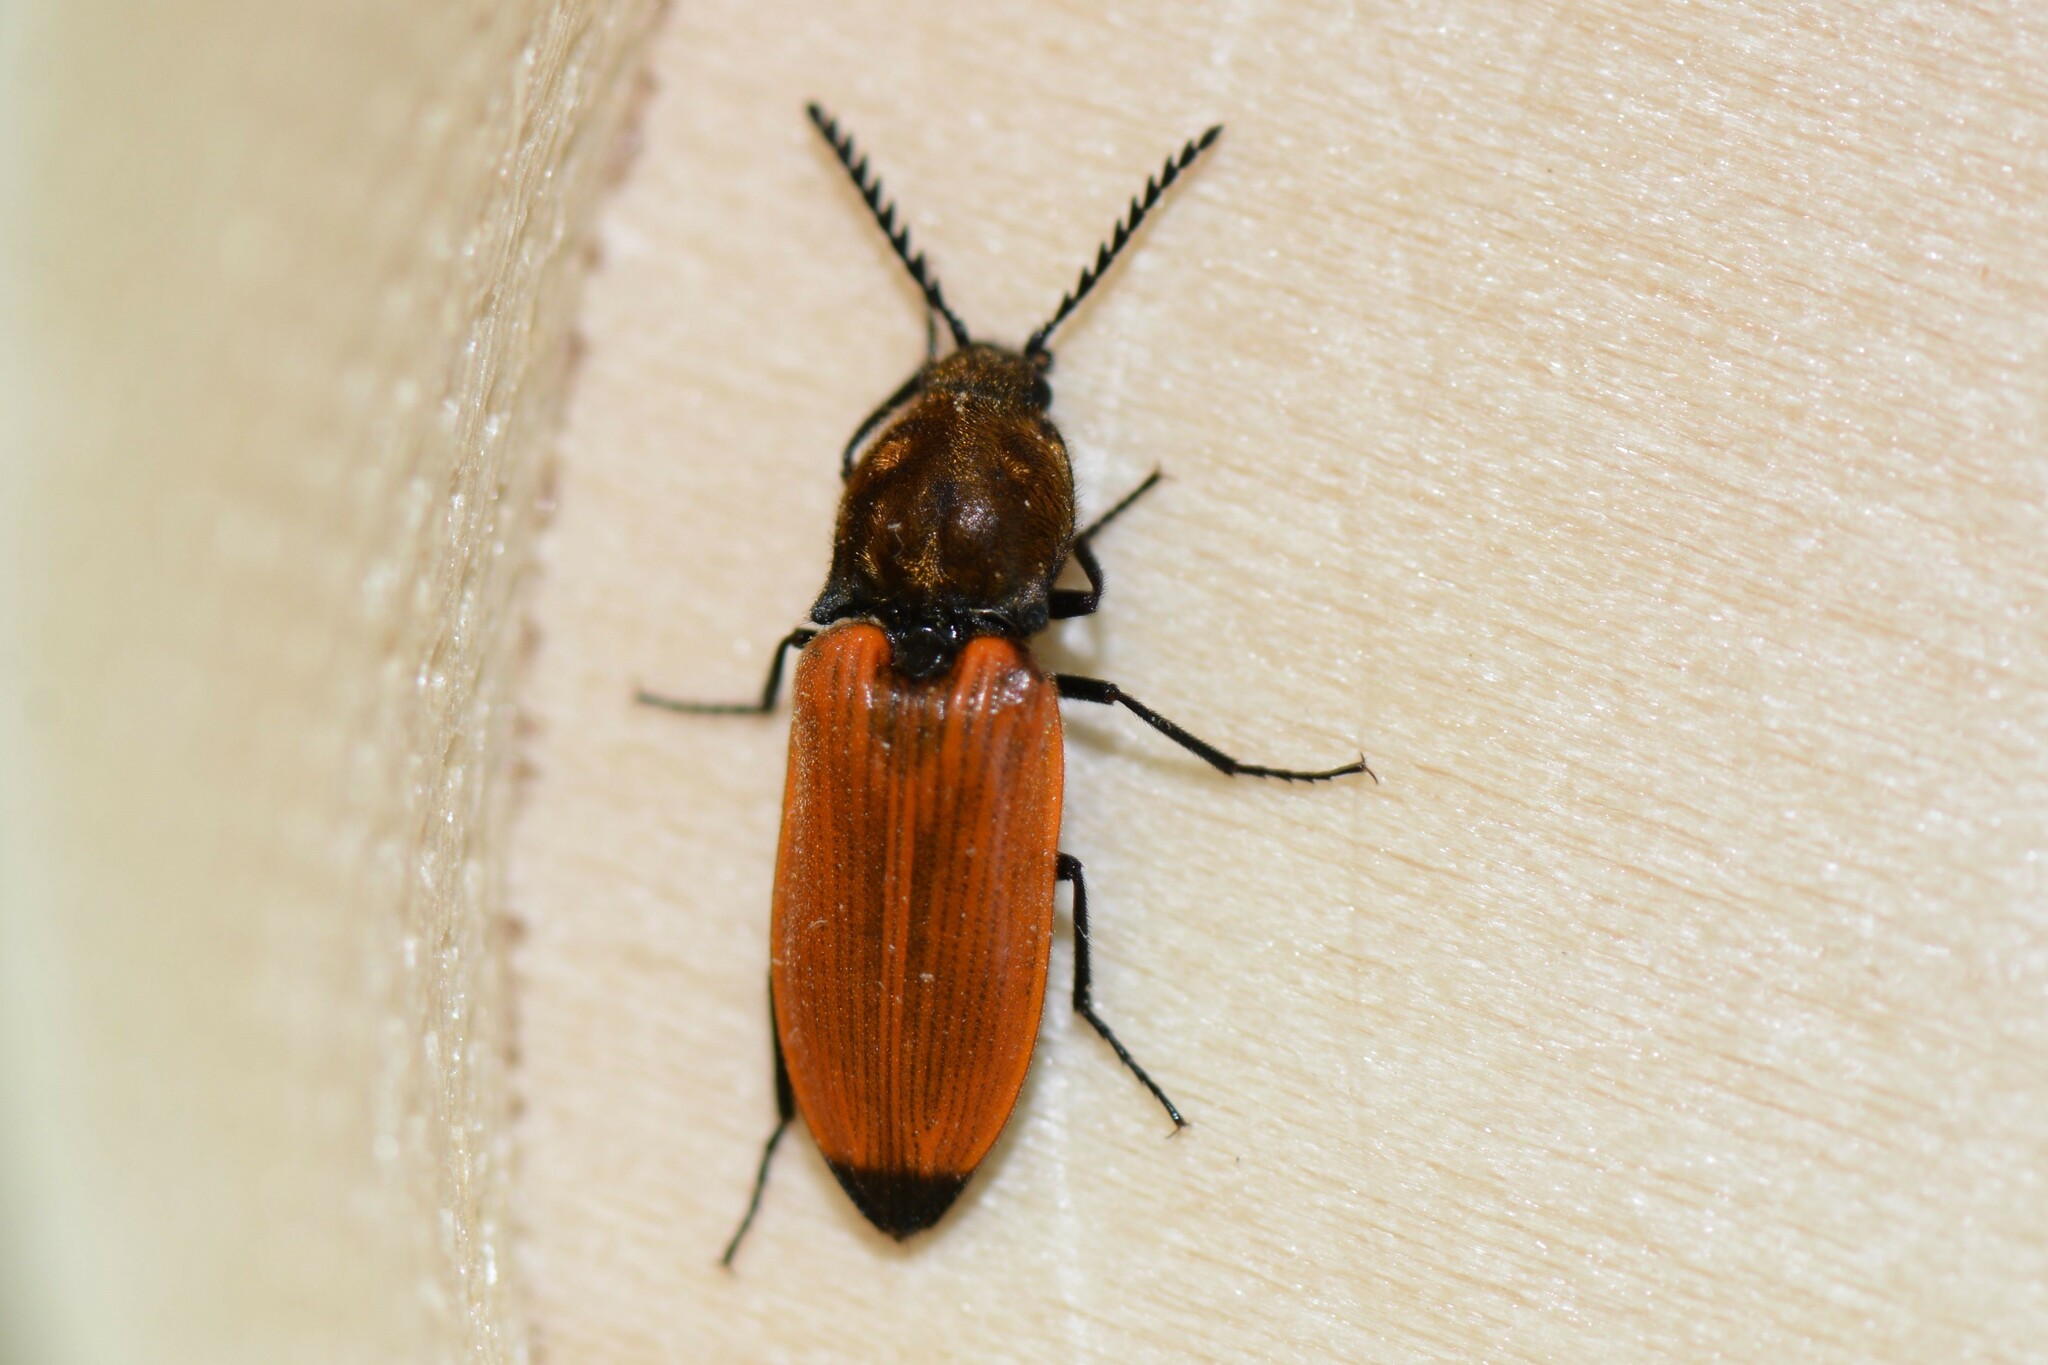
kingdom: Animalia
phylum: Arthropoda
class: Insecta
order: Coleoptera
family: Elateridae
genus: Anostirus
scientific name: Anostirus castaneus
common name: Chestnut coloured click beetle
